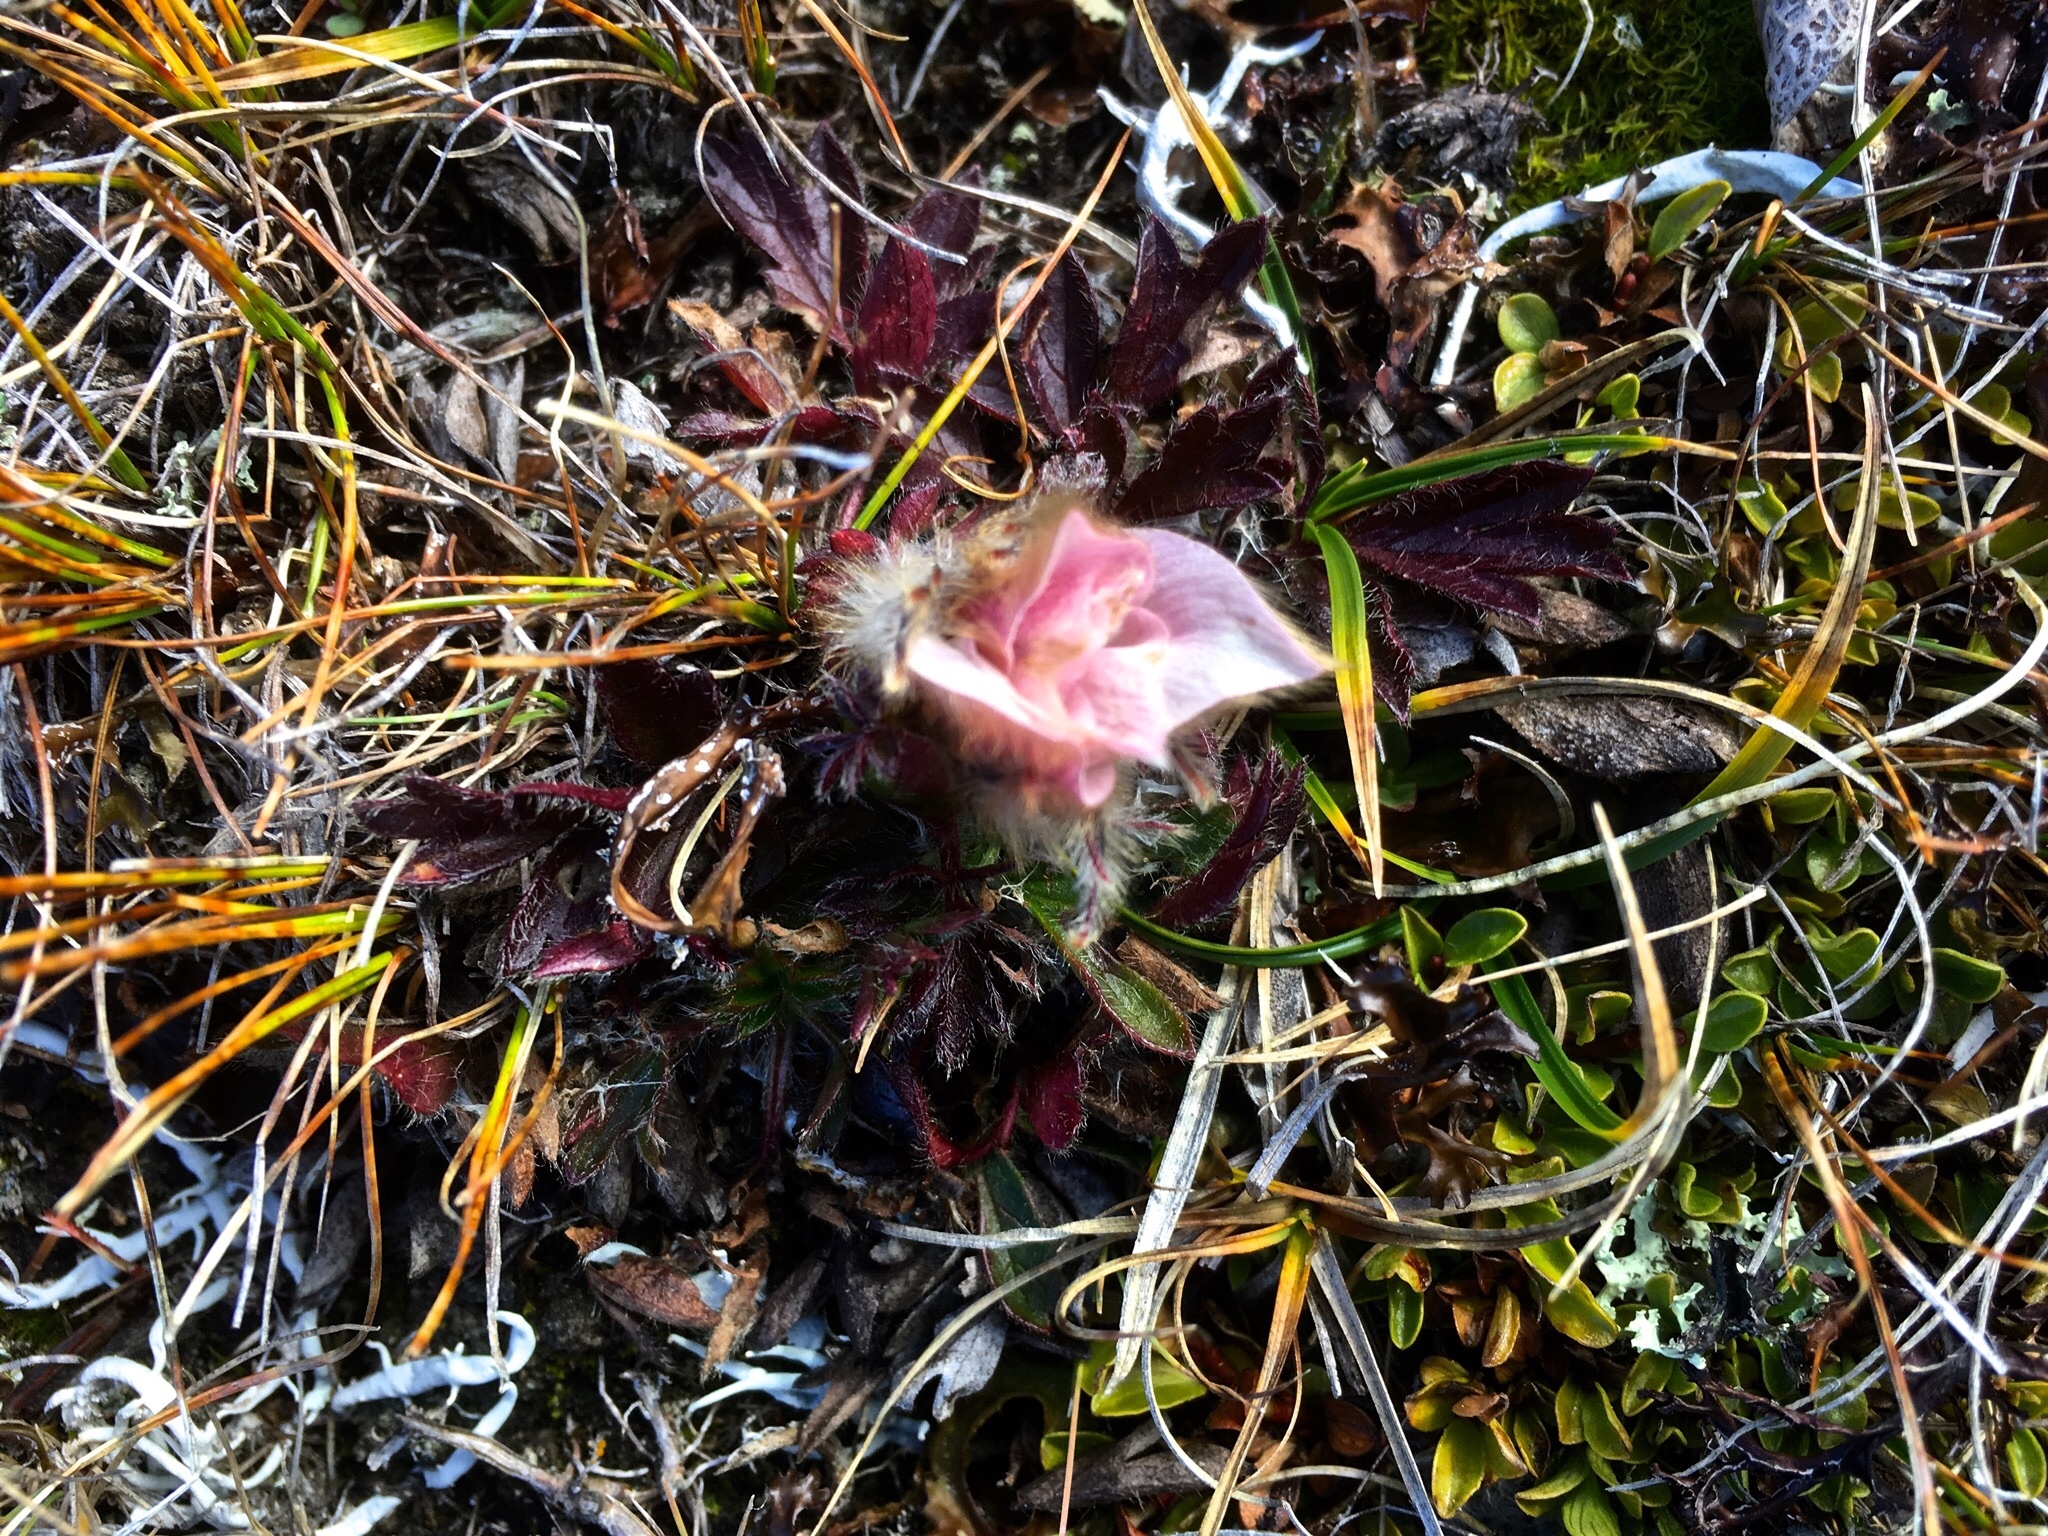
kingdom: Plantae
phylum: Tracheophyta
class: Magnoliopsida
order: Ranunculales
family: Ranunculaceae
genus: Pulsatilla
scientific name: Pulsatilla vernalis
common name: Spring pasque flower
